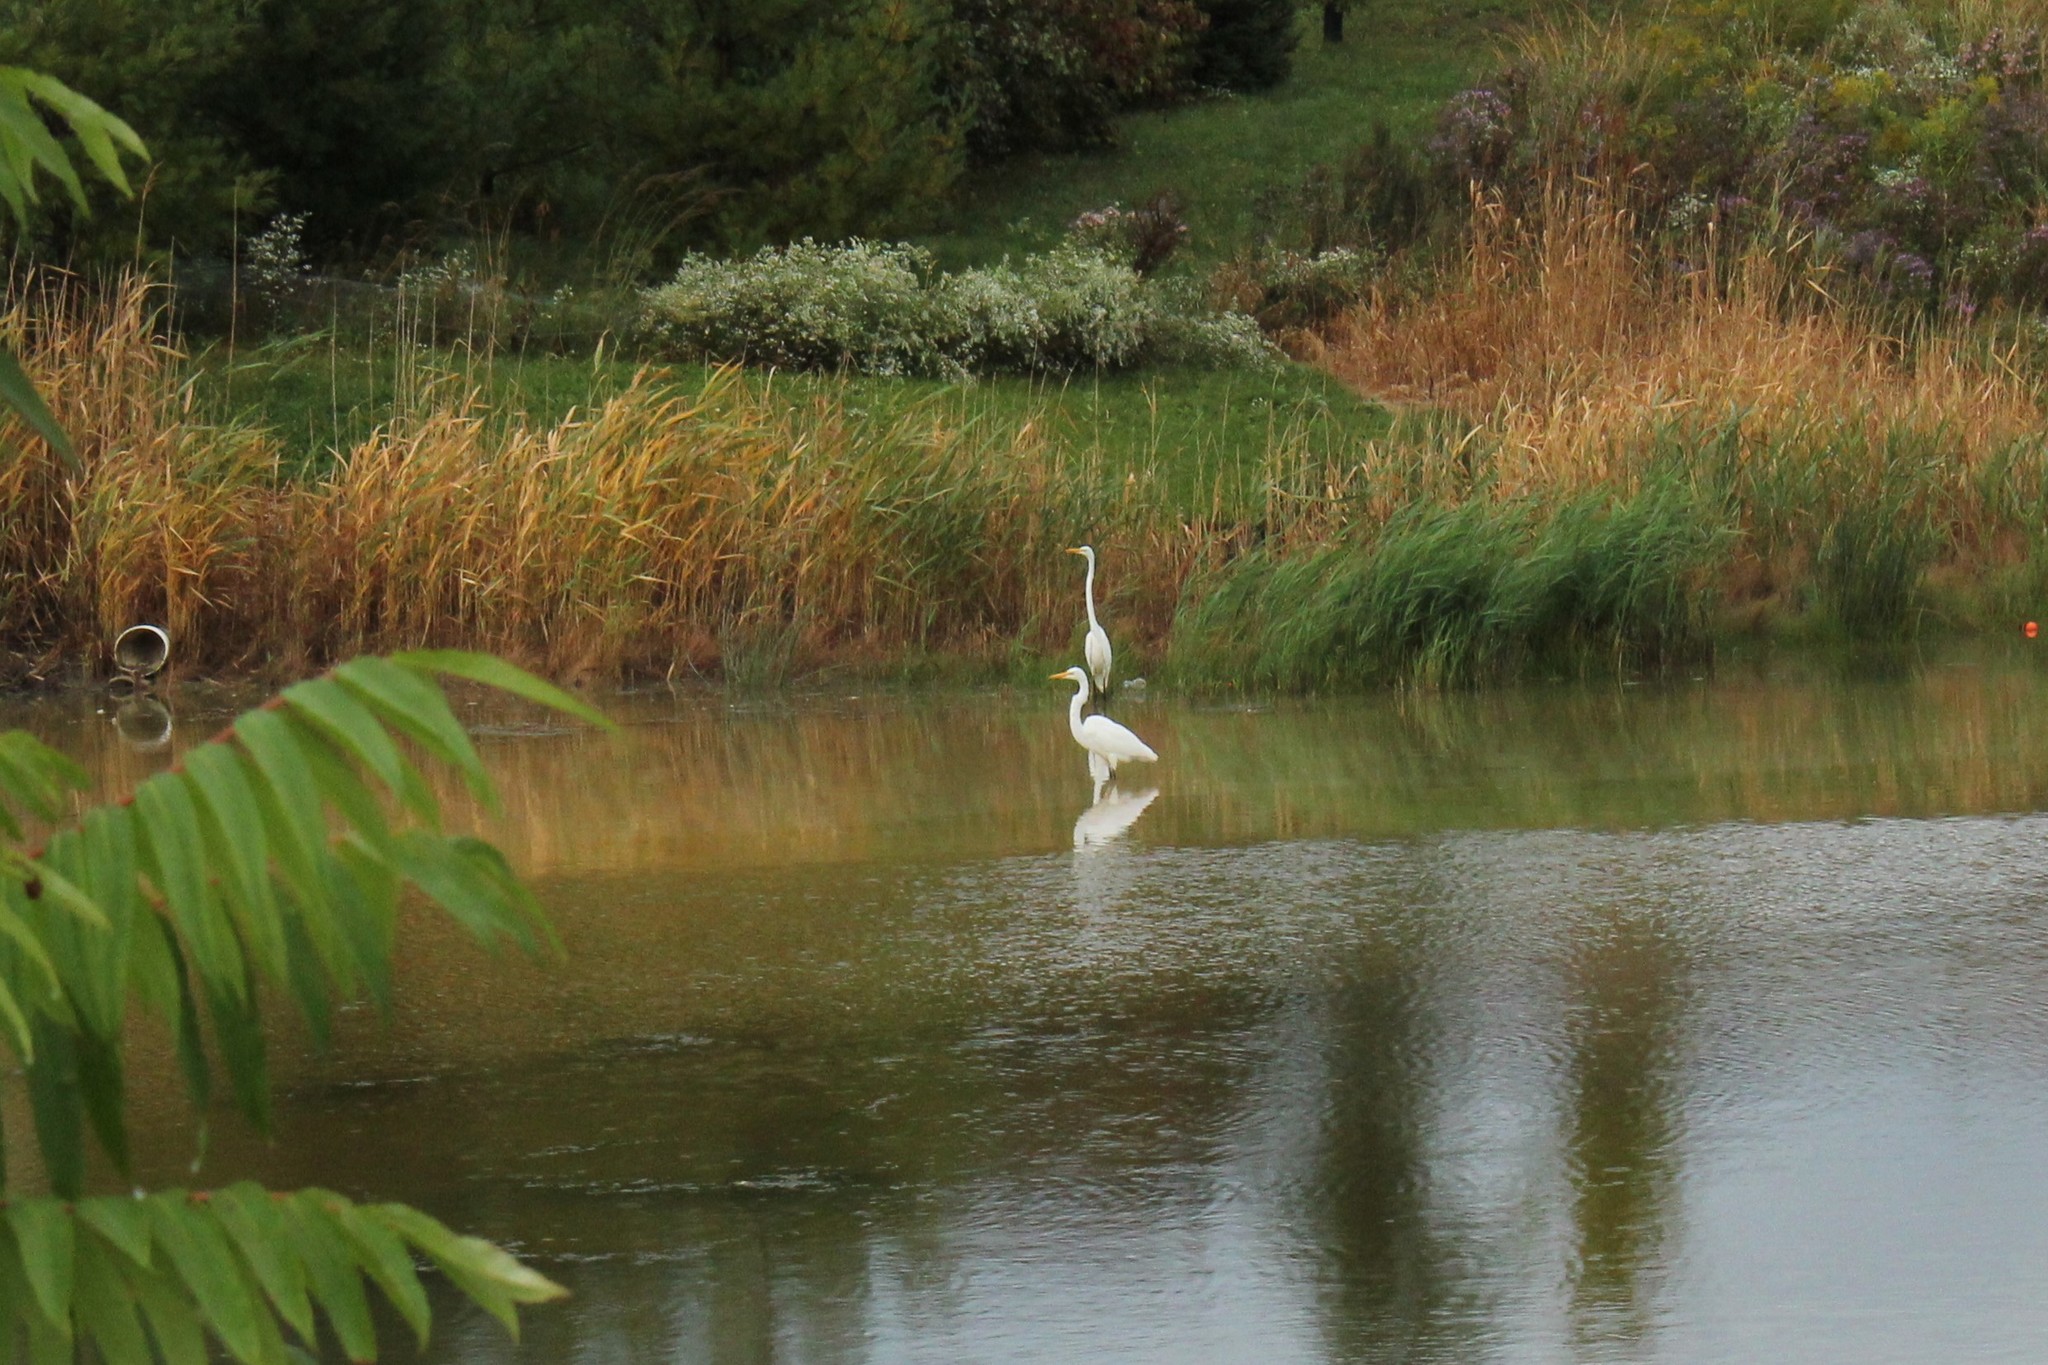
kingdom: Animalia
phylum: Chordata
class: Aves
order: Pelecaniformes
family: Ardeidae
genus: Ardea
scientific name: Ardea alba
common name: Great egret
